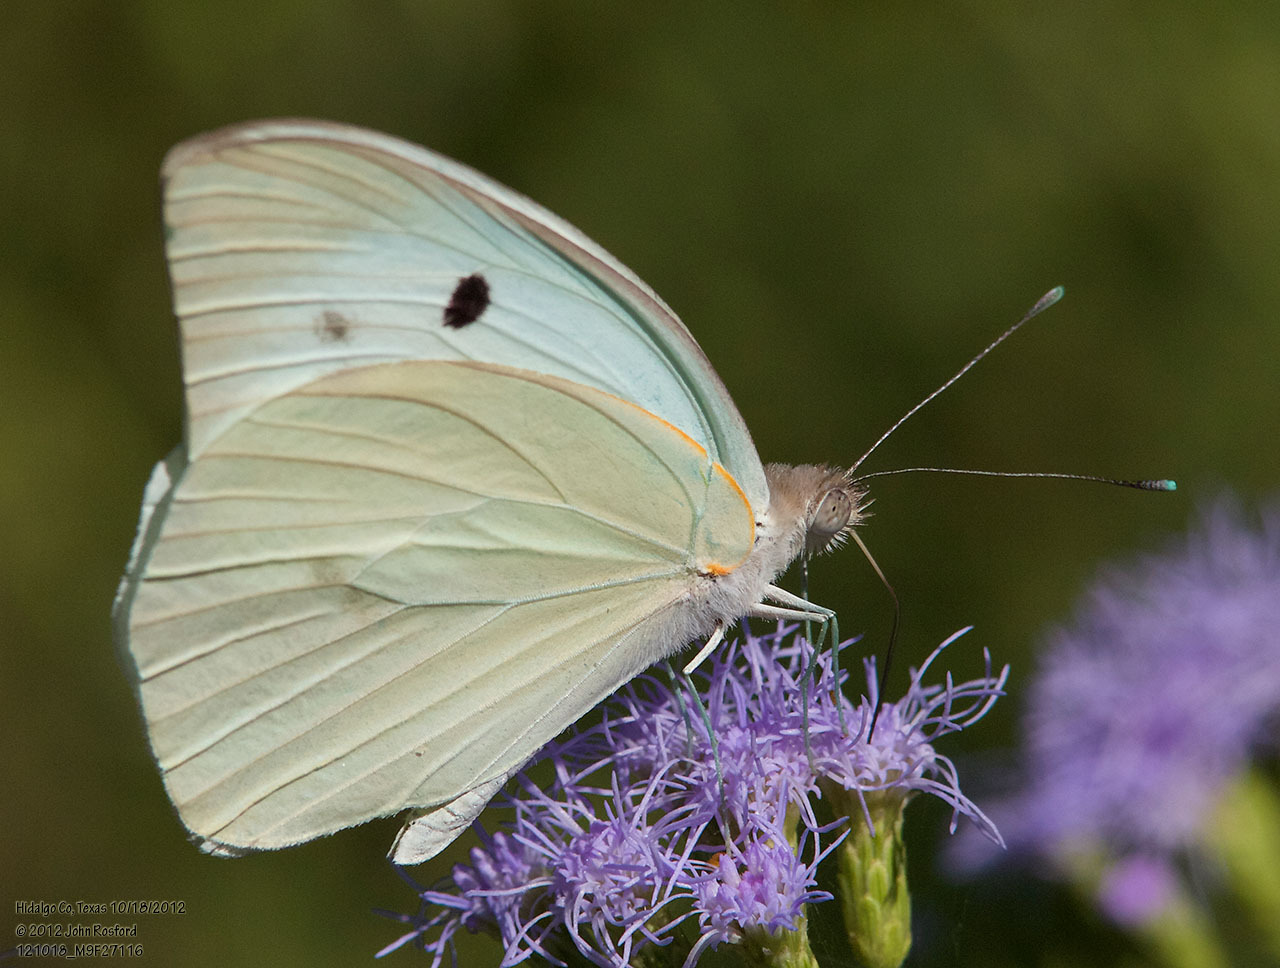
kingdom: Animalia
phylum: Arthropoda
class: Insecta
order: Lepidoptera
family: Pieridae
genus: Ganyra
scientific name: Ganyra josephina
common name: Giant white
